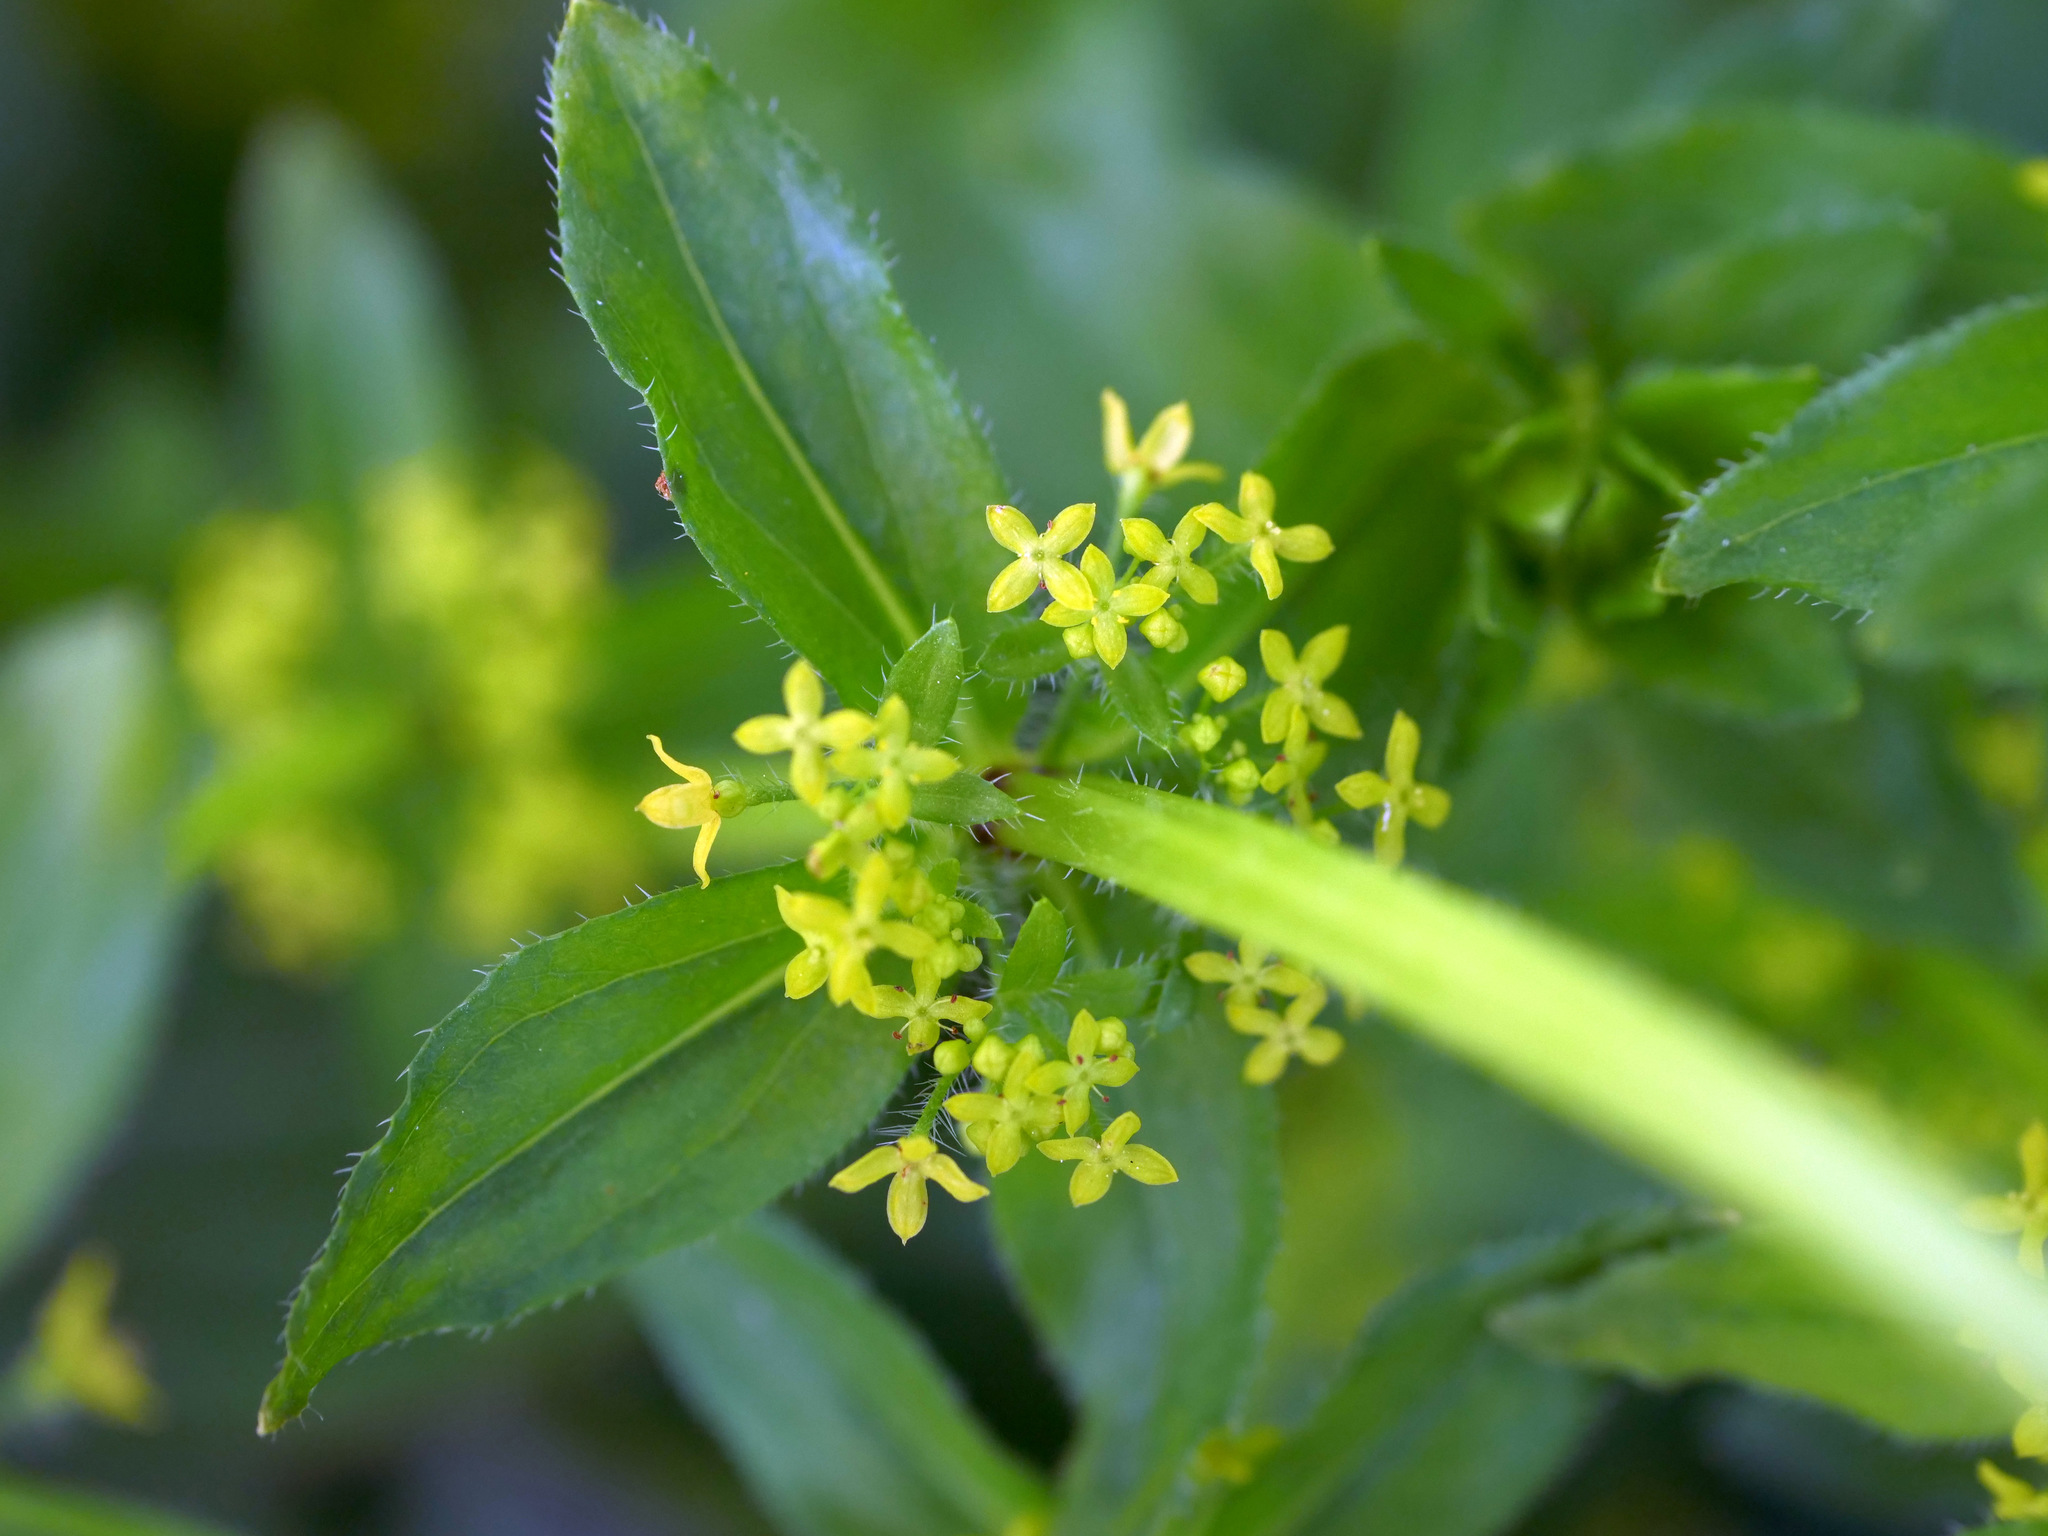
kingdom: Plantae
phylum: Tracheophyta
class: Magnoliopsida
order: Gentianales
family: Rubiaceae
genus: Cruciata
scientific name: Cruciata laevipes
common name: Crosswort
